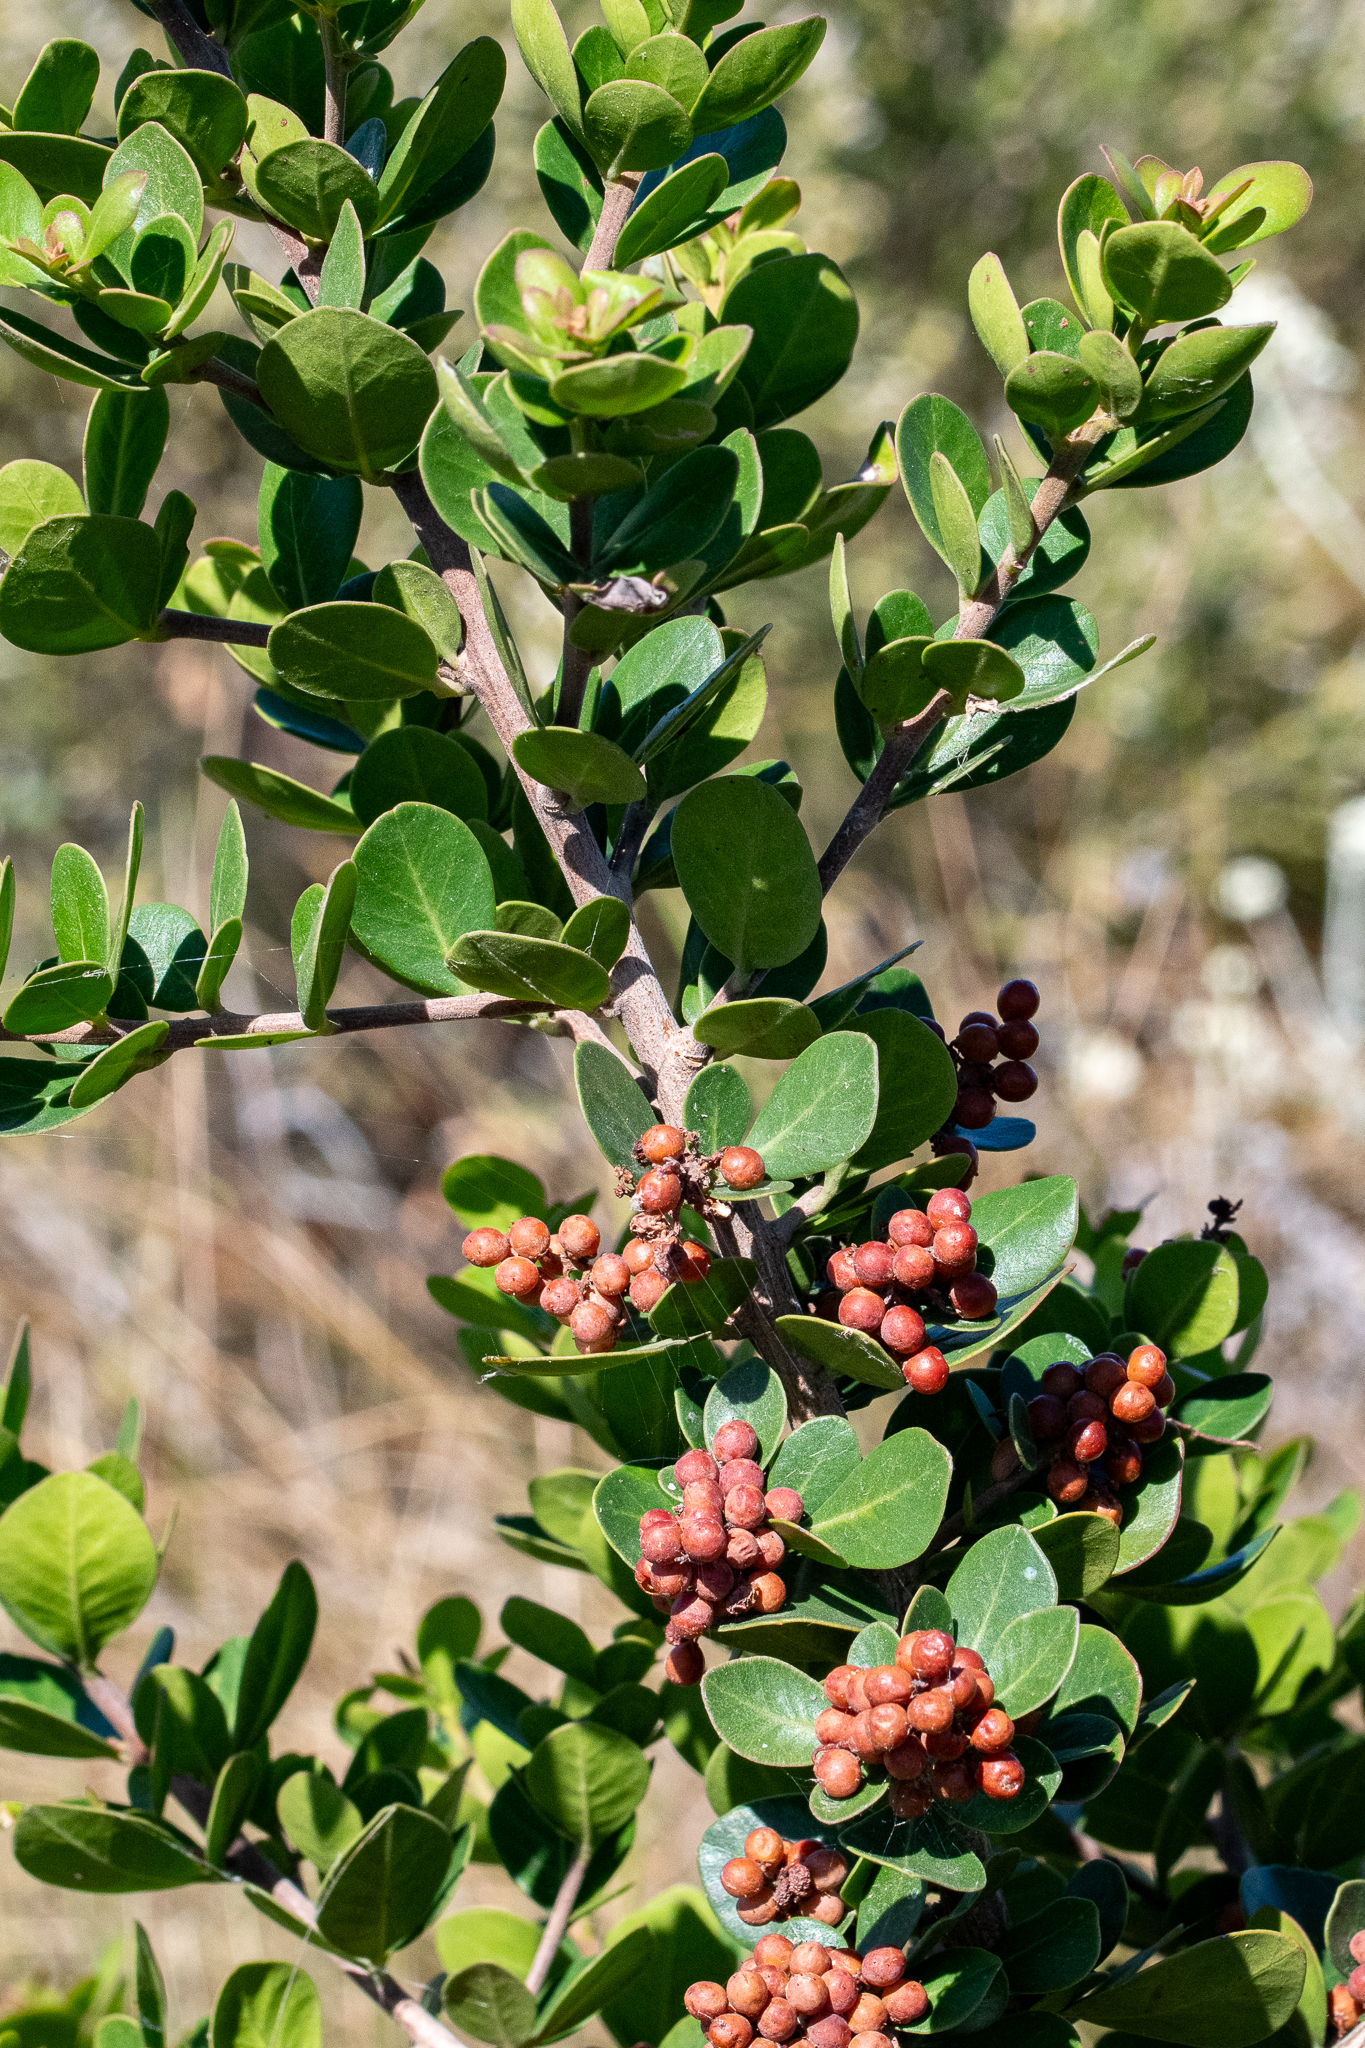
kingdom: Plantae
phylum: Tracheophyta
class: Magnoliopsida
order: Sapindales
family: Anacardiaceae
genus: Searsia
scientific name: Searsia lucida
